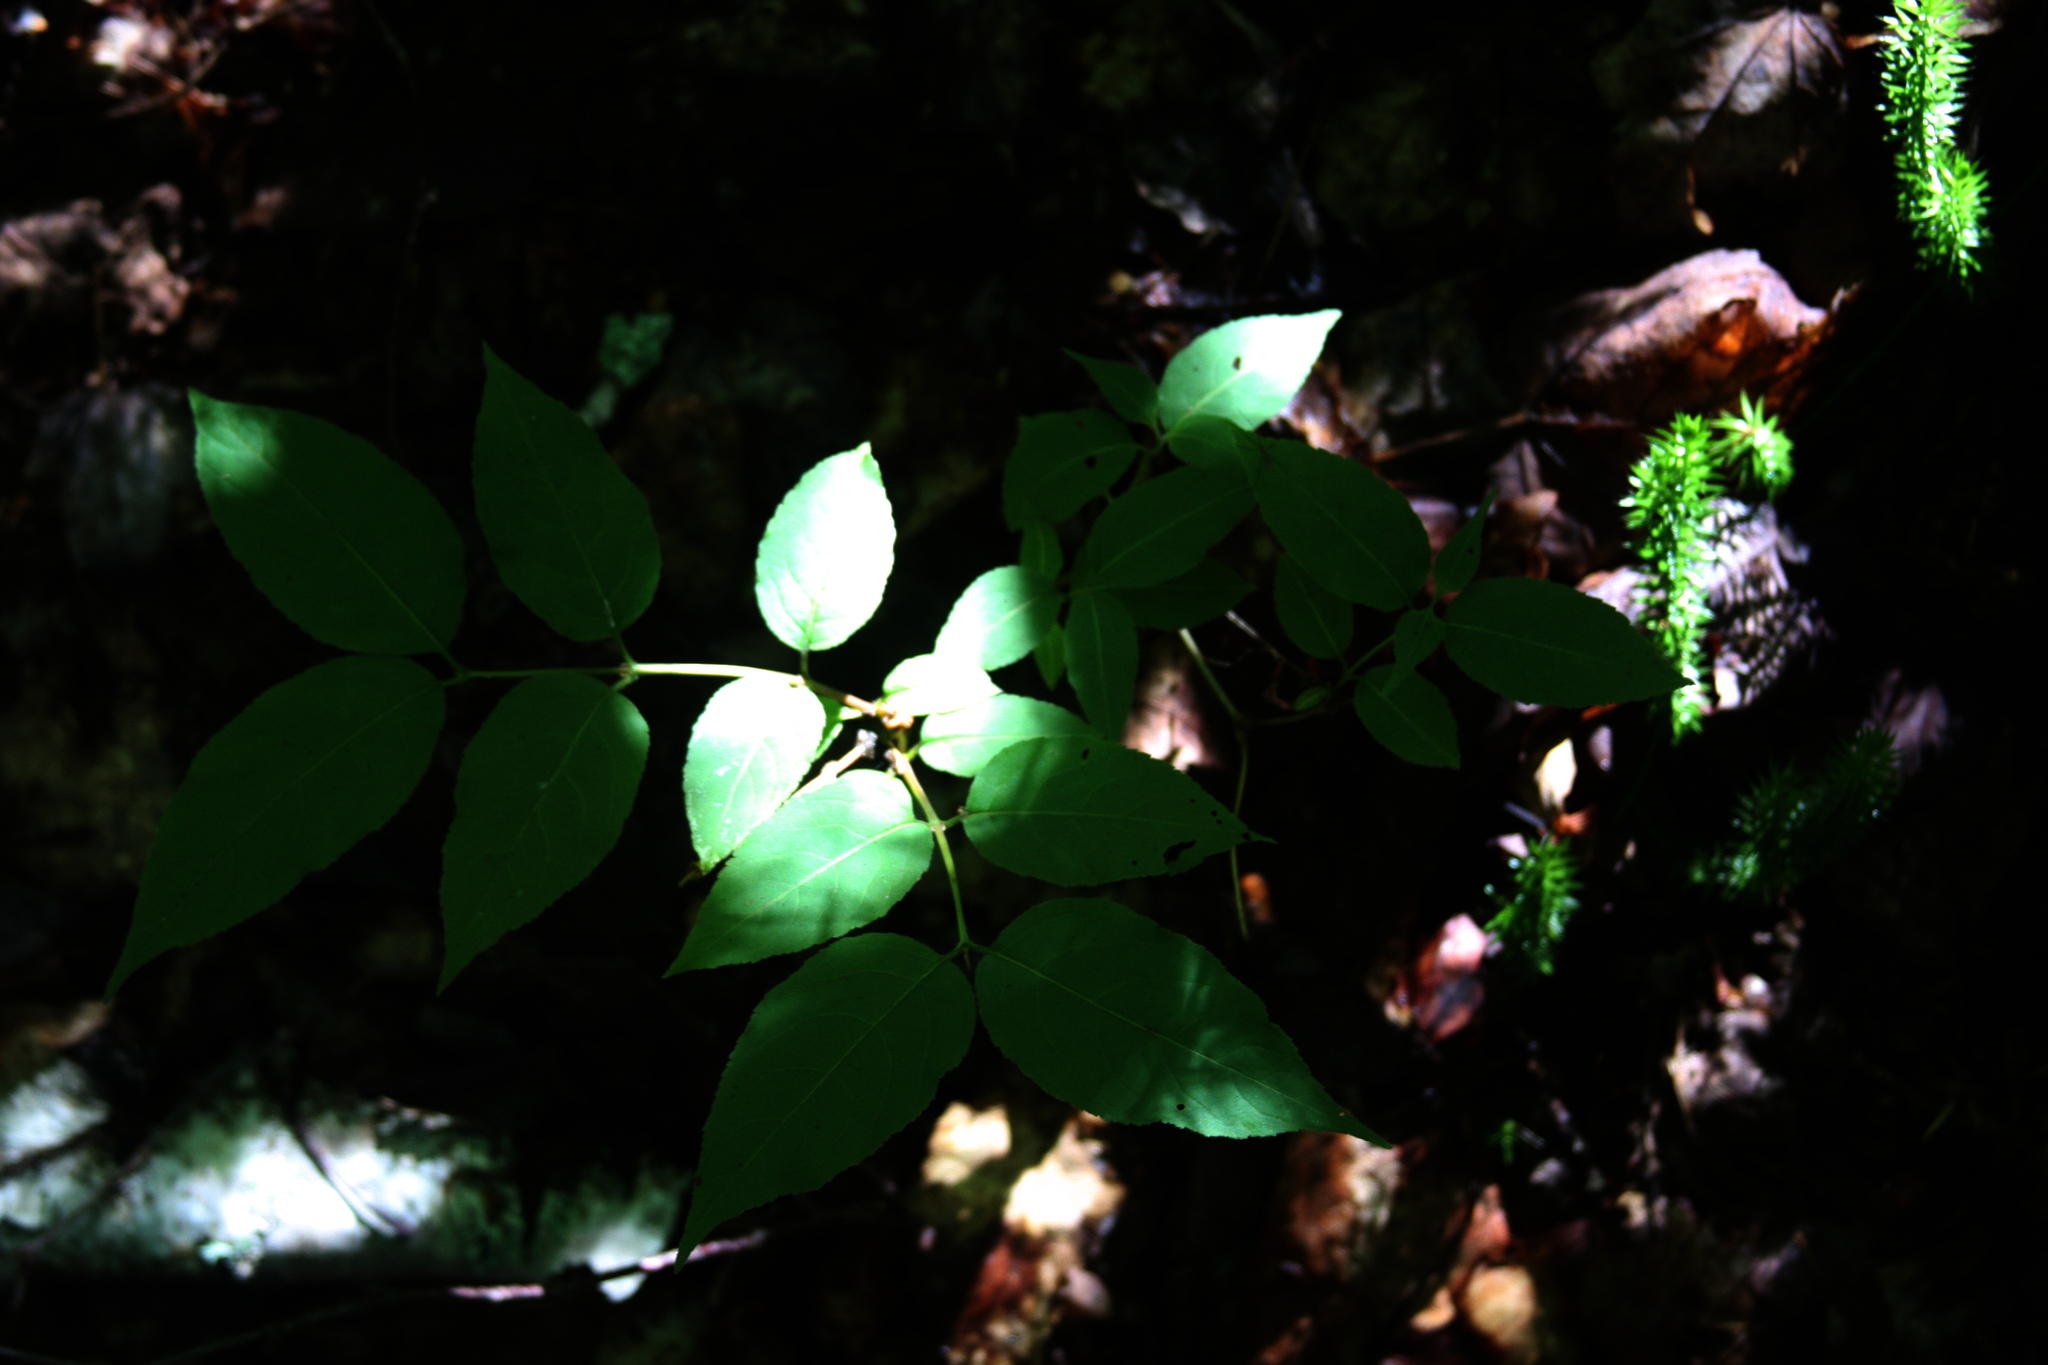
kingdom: Plantae
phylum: Tracheophyta
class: Magnoliopsida
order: Dipsacales
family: Caprifoliaceae
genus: Diervilla
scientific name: Diervilla lonicera
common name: Bush-honeysuckle
